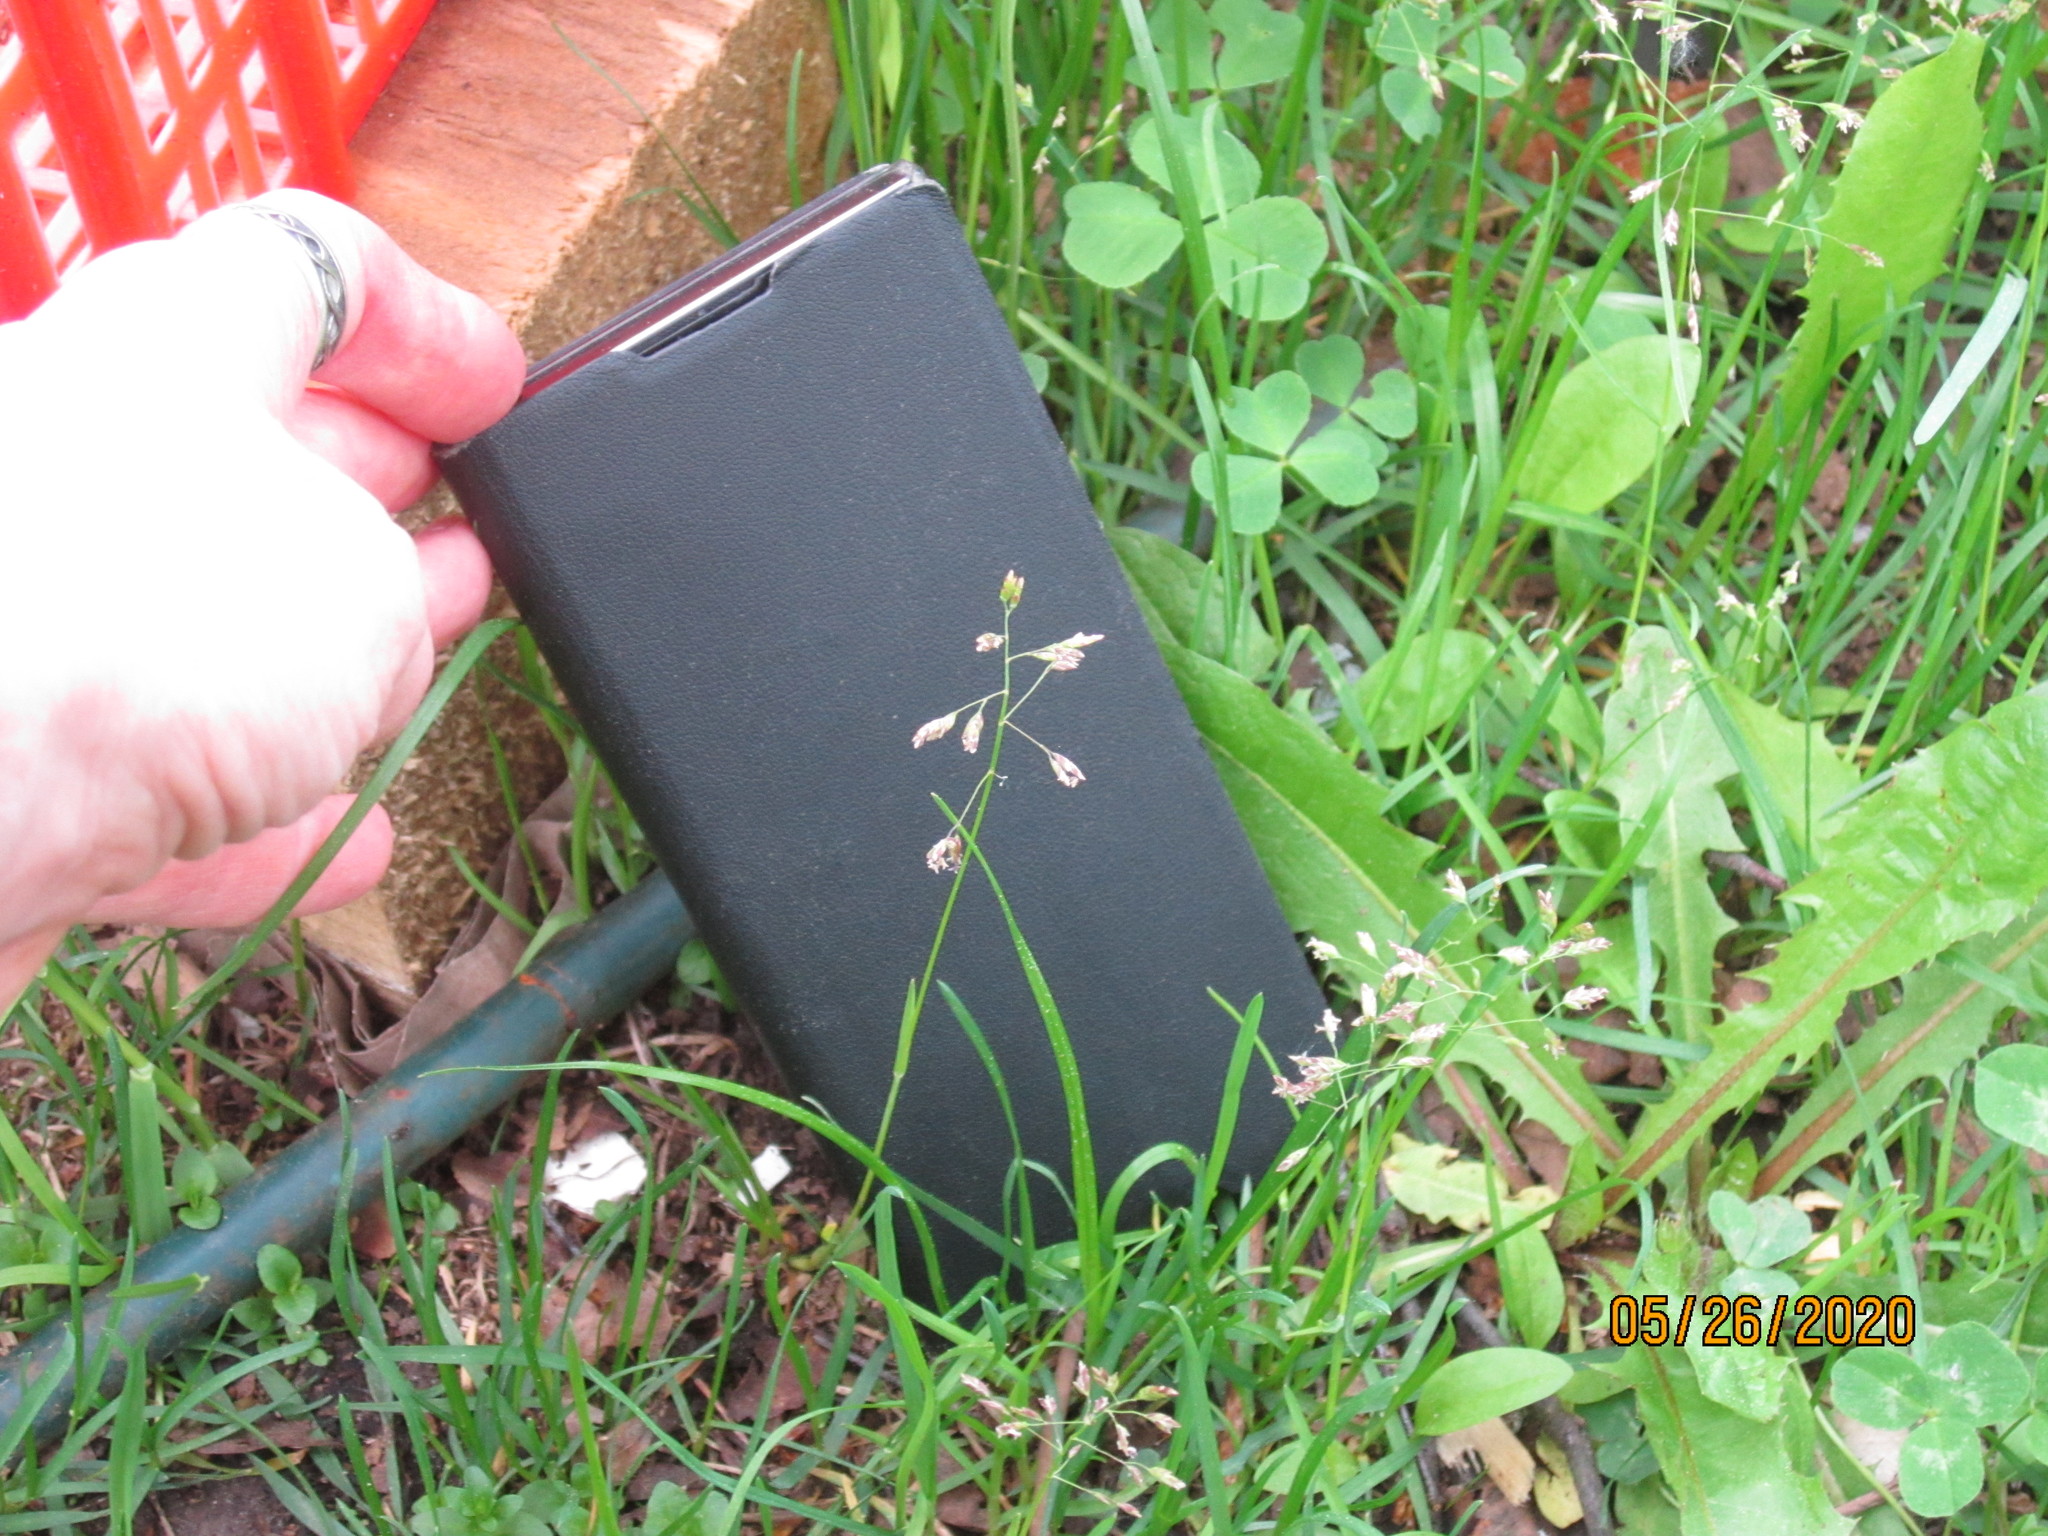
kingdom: Plantae
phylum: Tracheophyta
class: Liliopsida
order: Poales
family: Poaceae
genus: Poa
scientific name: Poa annua
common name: Annual bluegrass
